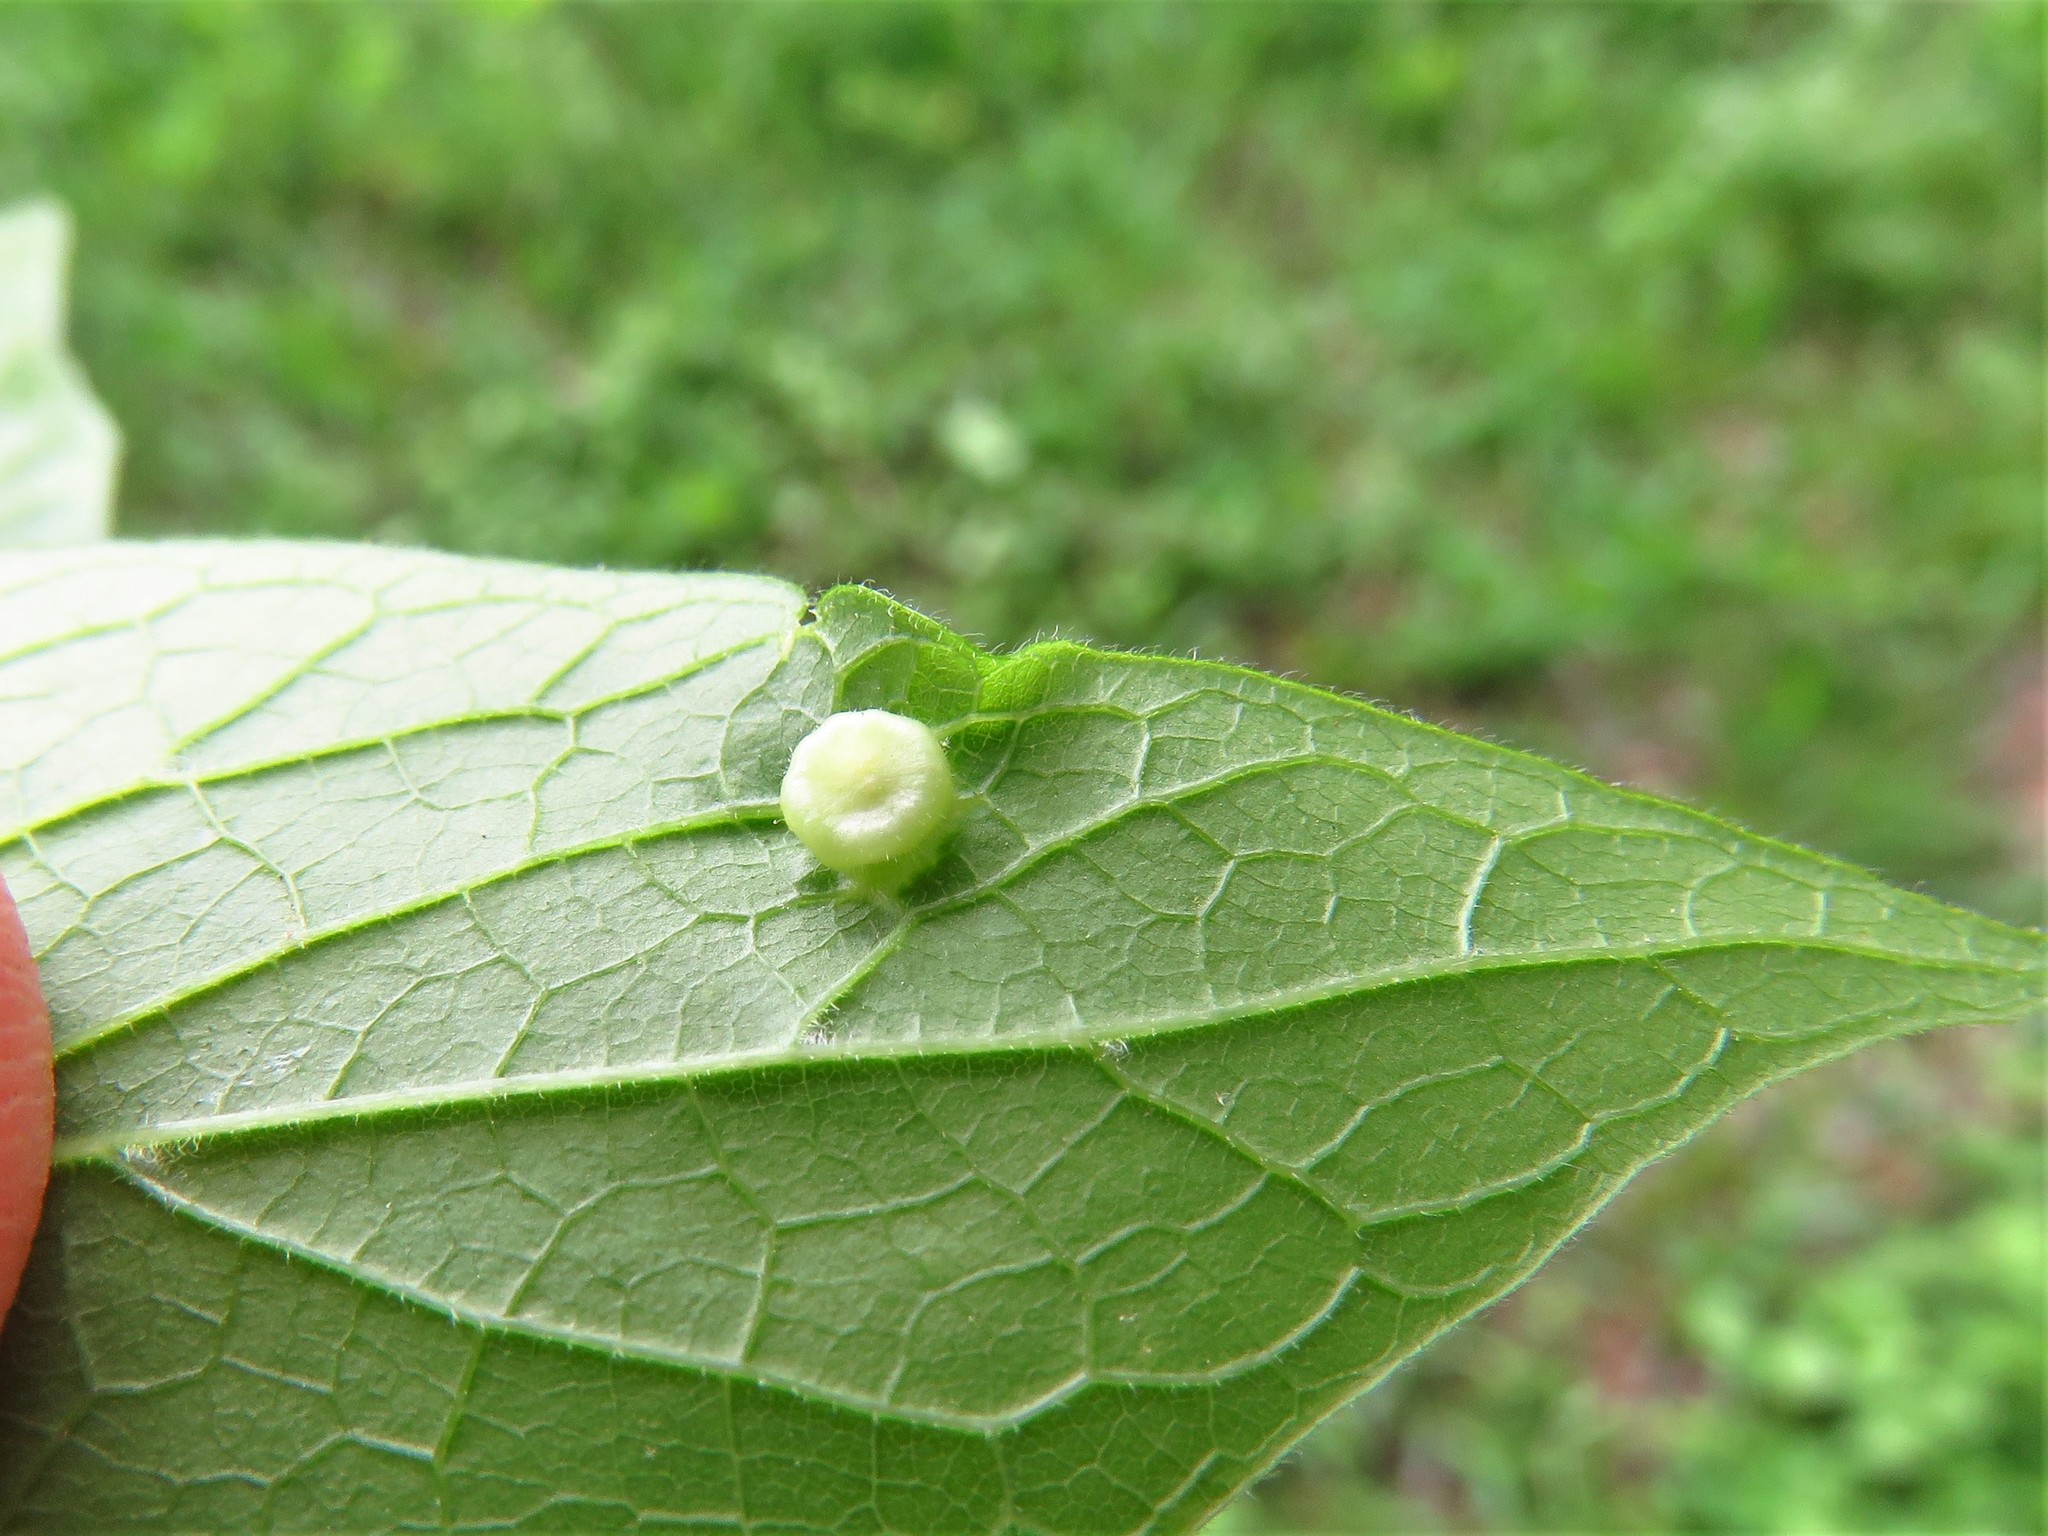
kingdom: Animalia
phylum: Arthropoda
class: Insecta
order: Hemiptera
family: Aphalaridae
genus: Pachypsylla
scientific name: Pachypsylla celtidismamma
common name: Hackberry nipplegall psyllid
